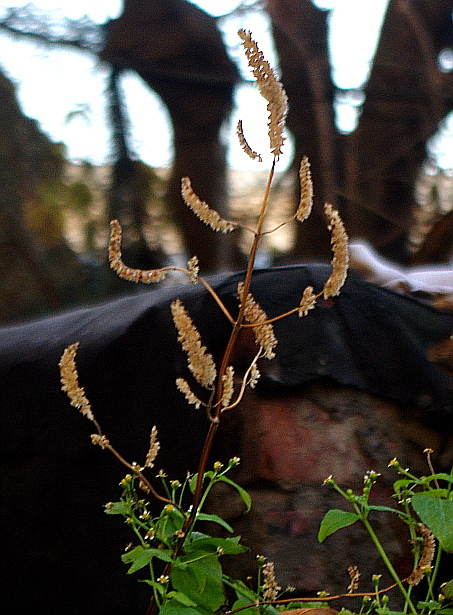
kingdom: Plantae
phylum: Tracheophyta
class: Magnoliopsida
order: Lamiales
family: Lamiaceae
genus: Elsholtzia
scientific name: Elsholtzia ciliata
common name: Ciliate elsholtzia
